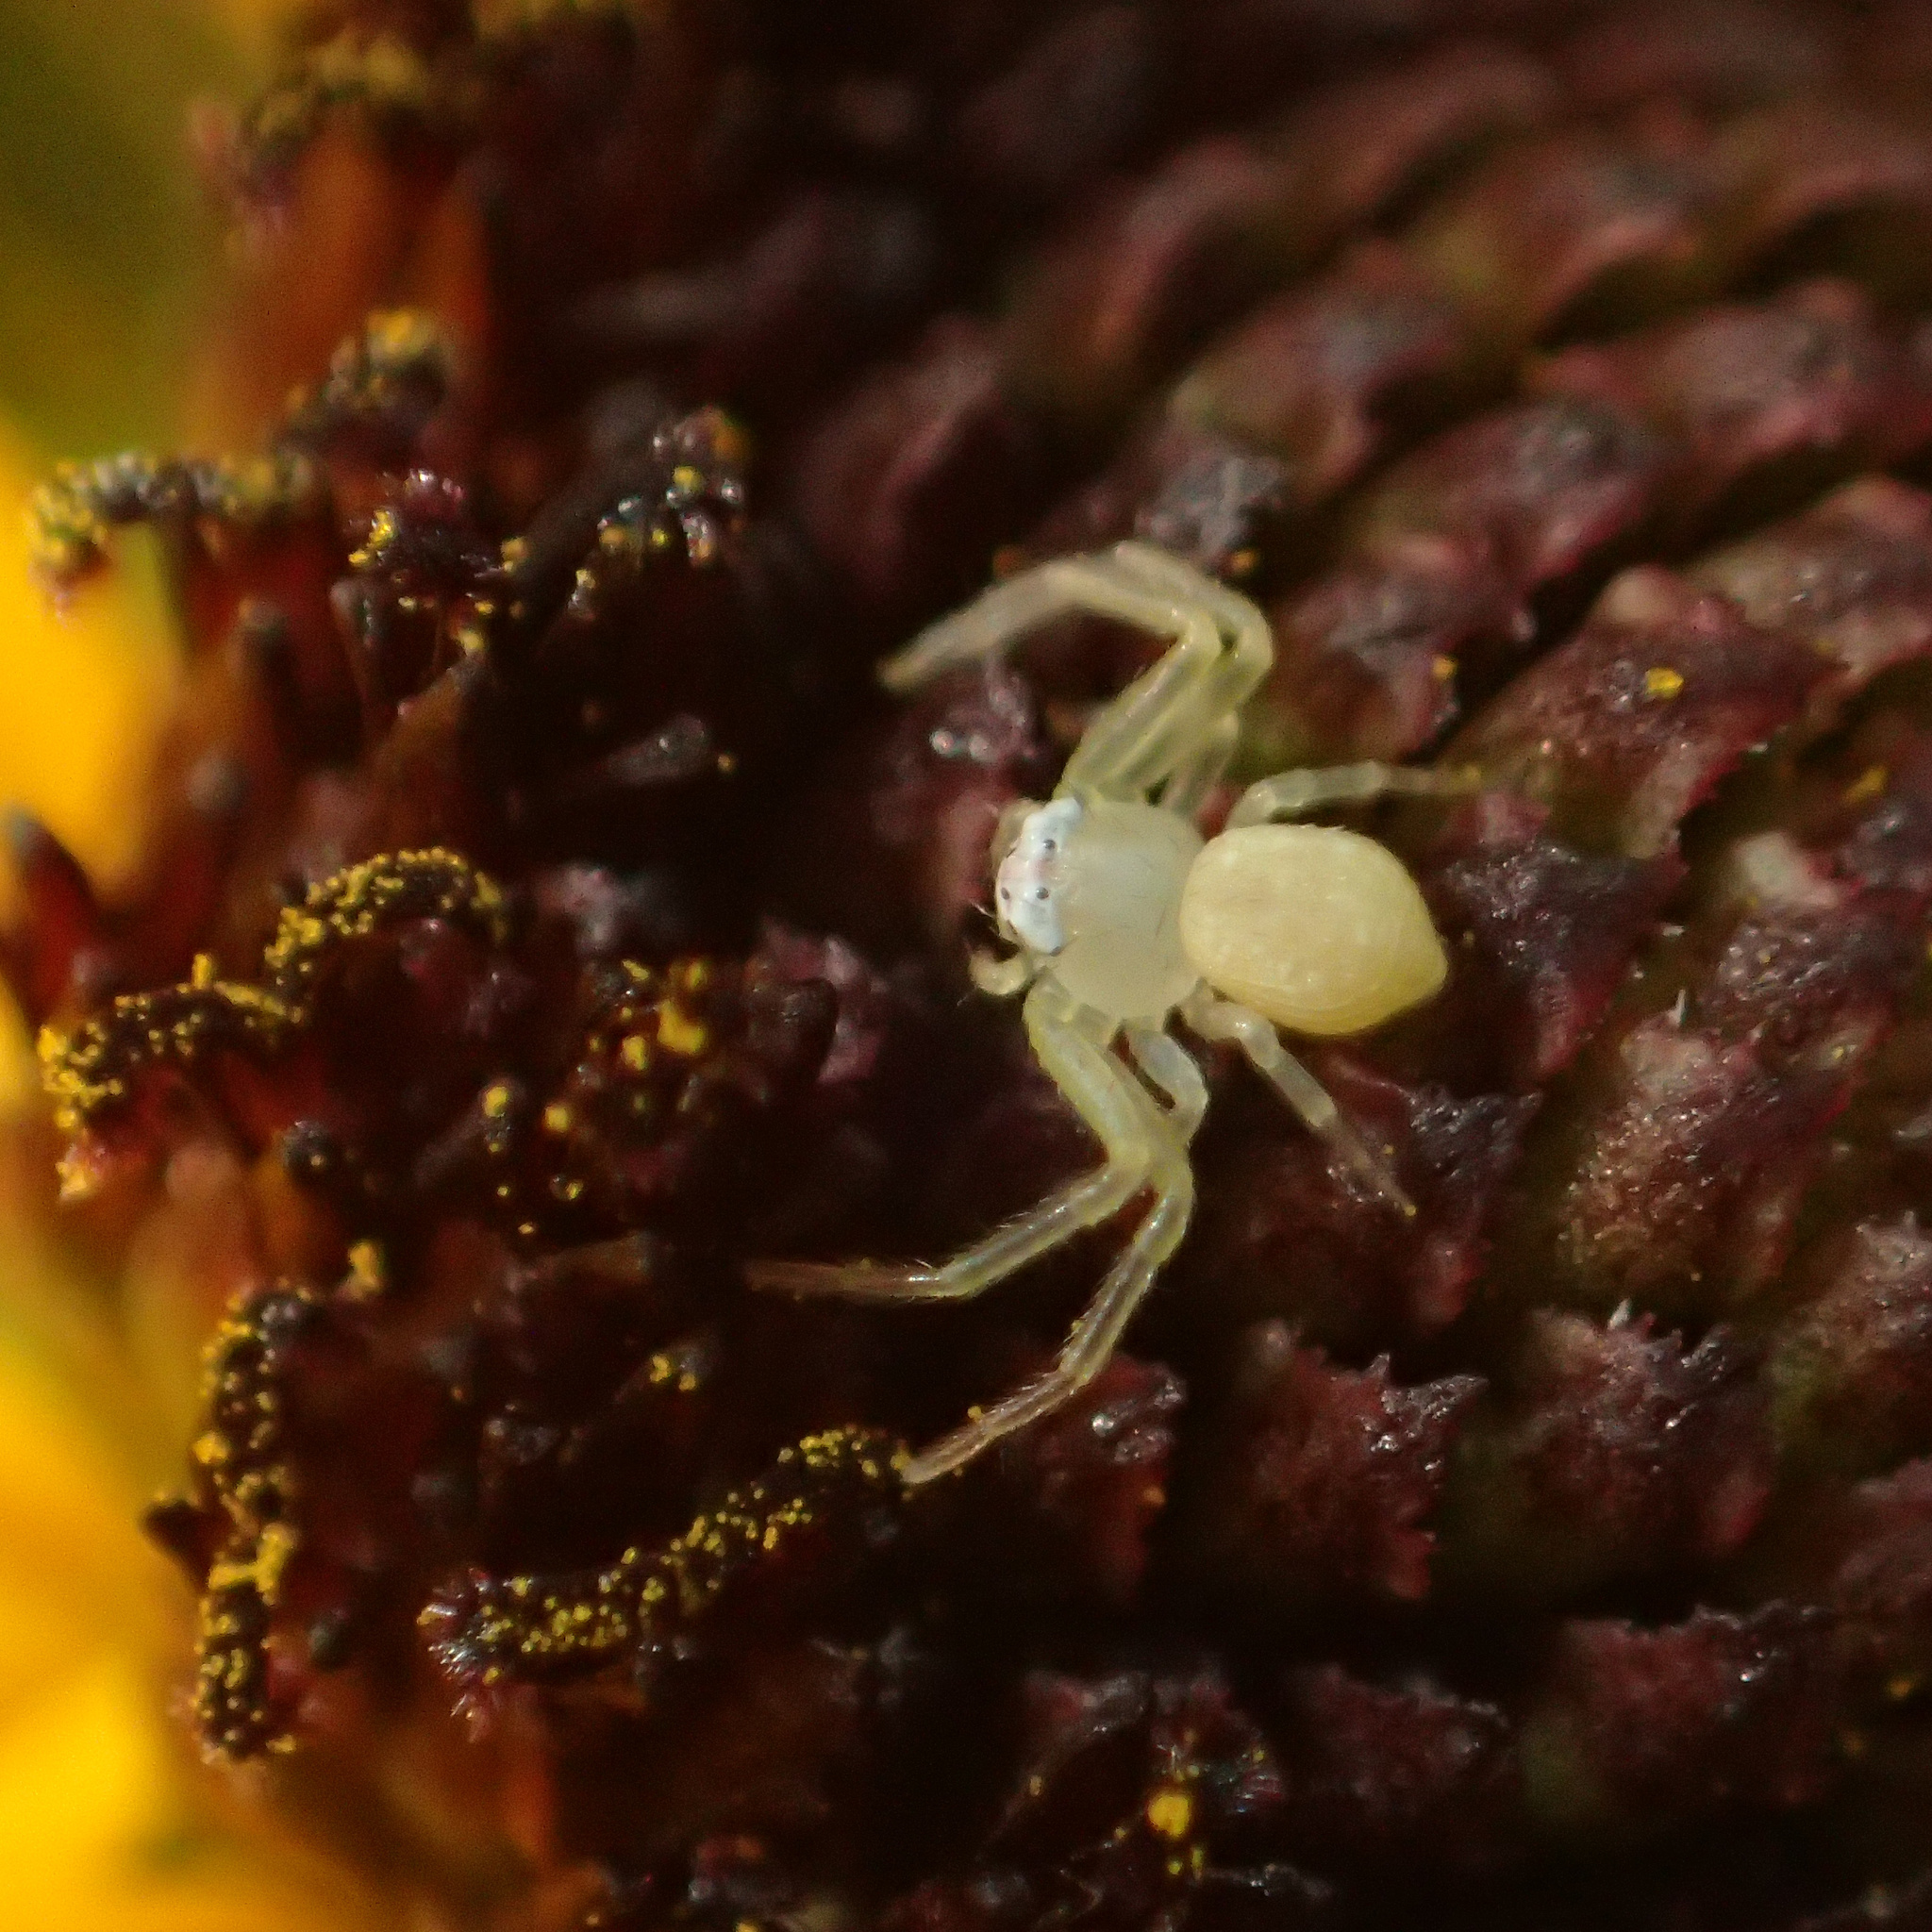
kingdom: Animalia
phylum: Arthropoda
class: Arachnida
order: Araneae
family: Thomisidae
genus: Misumessus
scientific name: Misumessus oblongus
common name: American green crab spider
